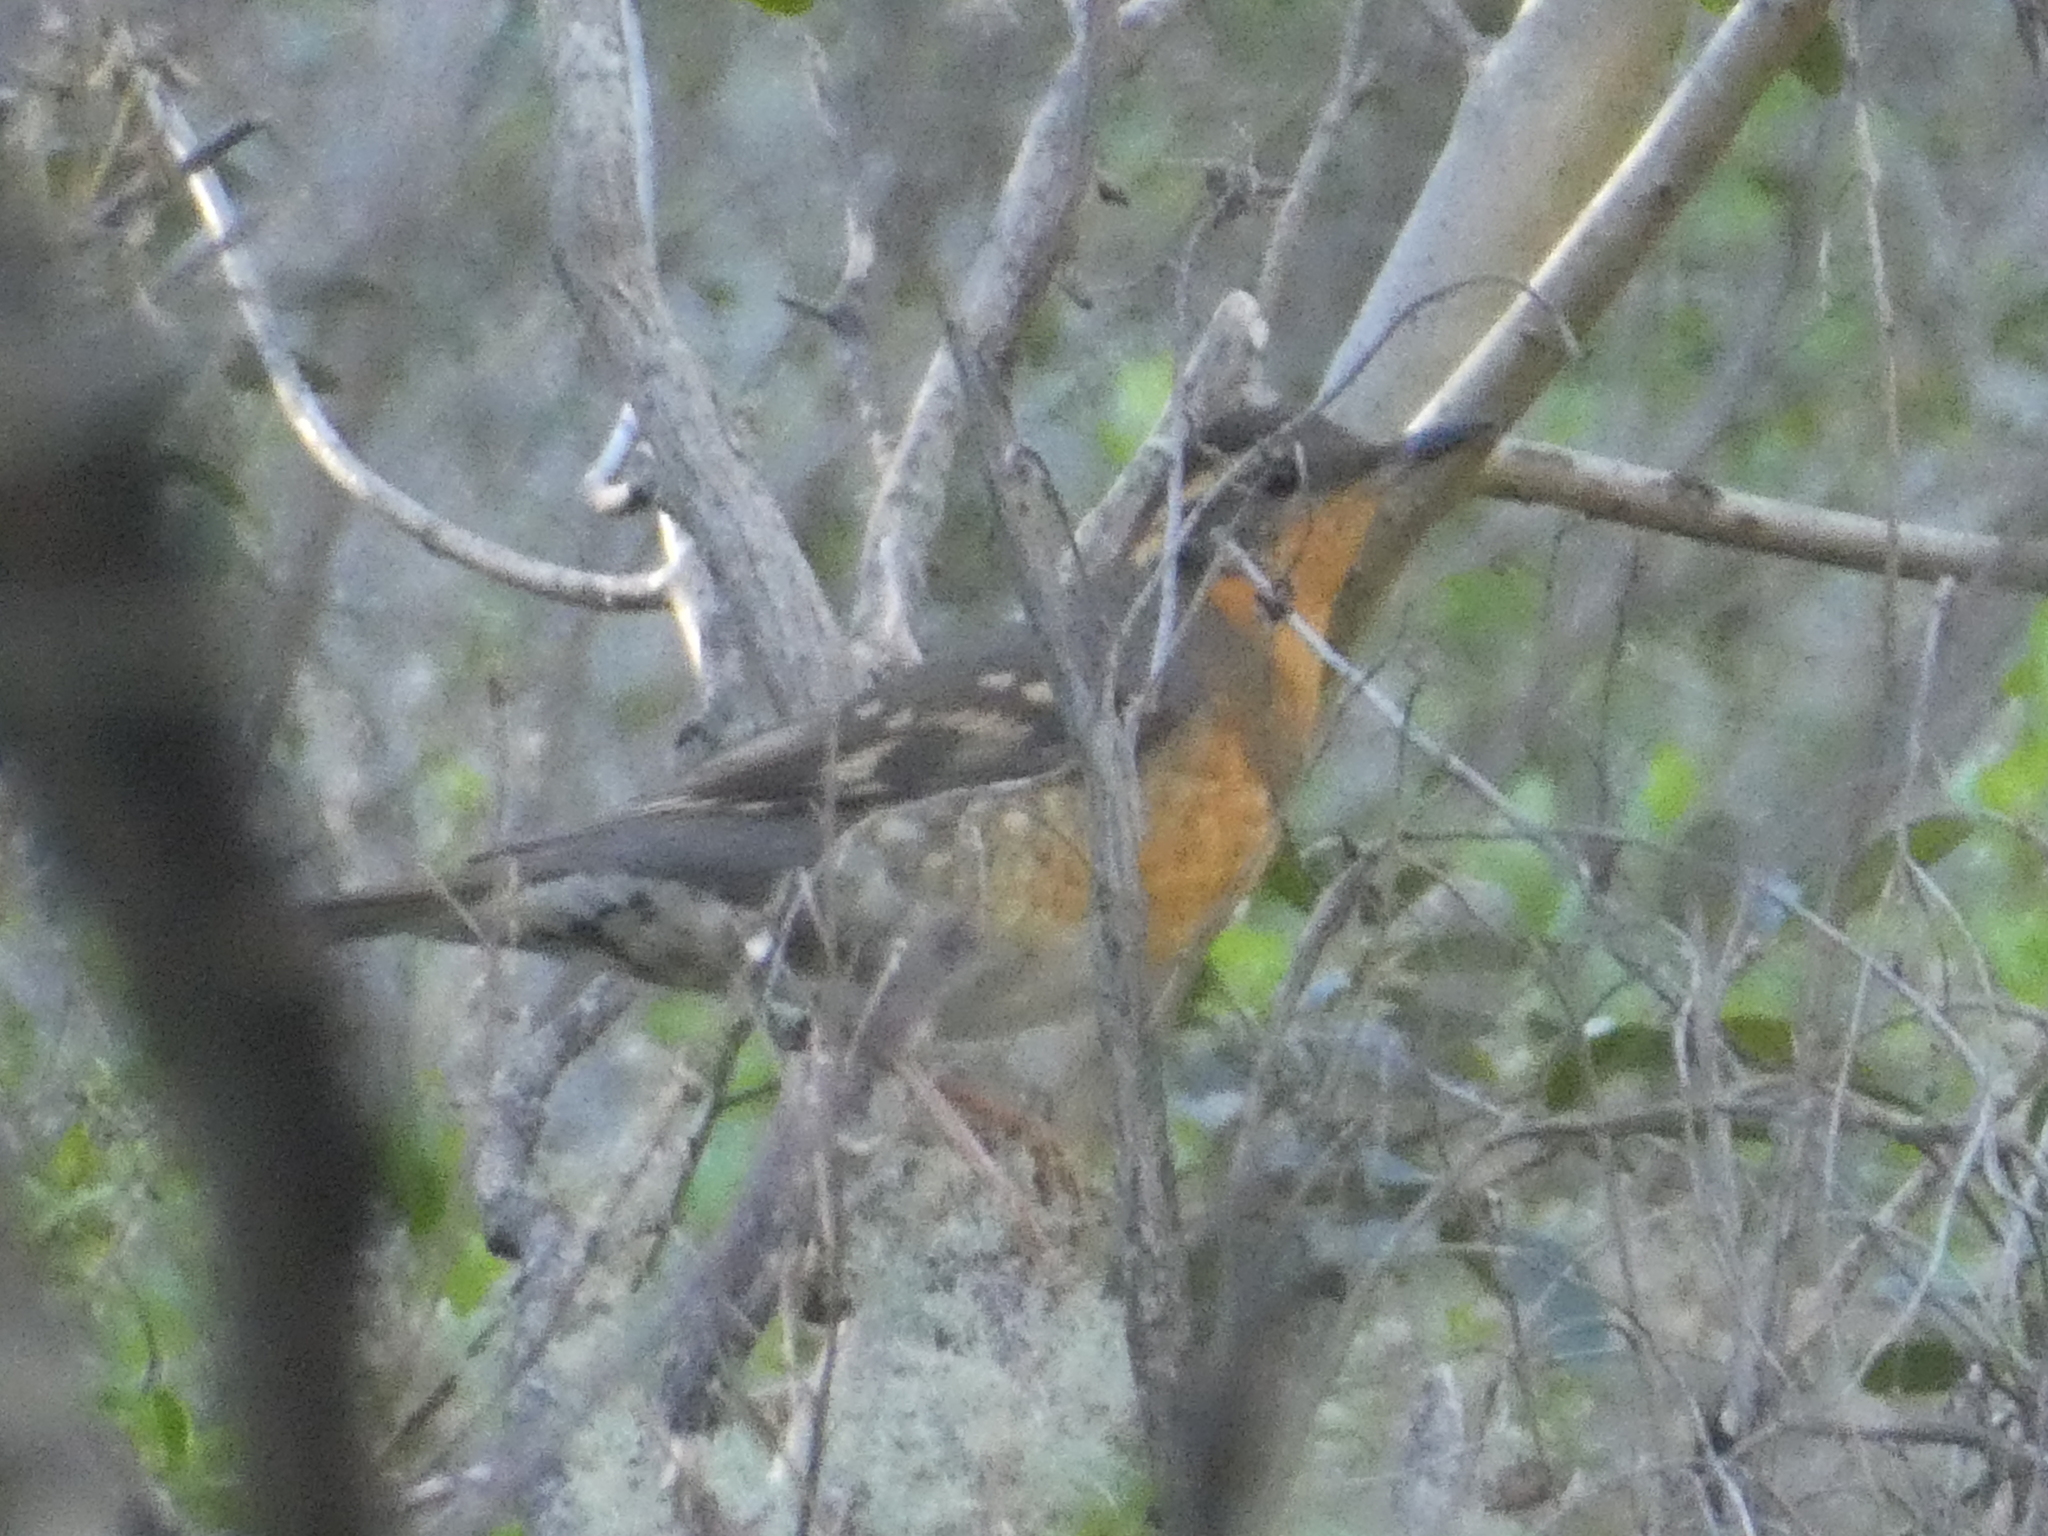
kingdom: Animalia
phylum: Chordata
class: Aves
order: Passeriformes
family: Turdidae
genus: Ixoreus
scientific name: Ixoreus naevius
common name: Varied thrush
